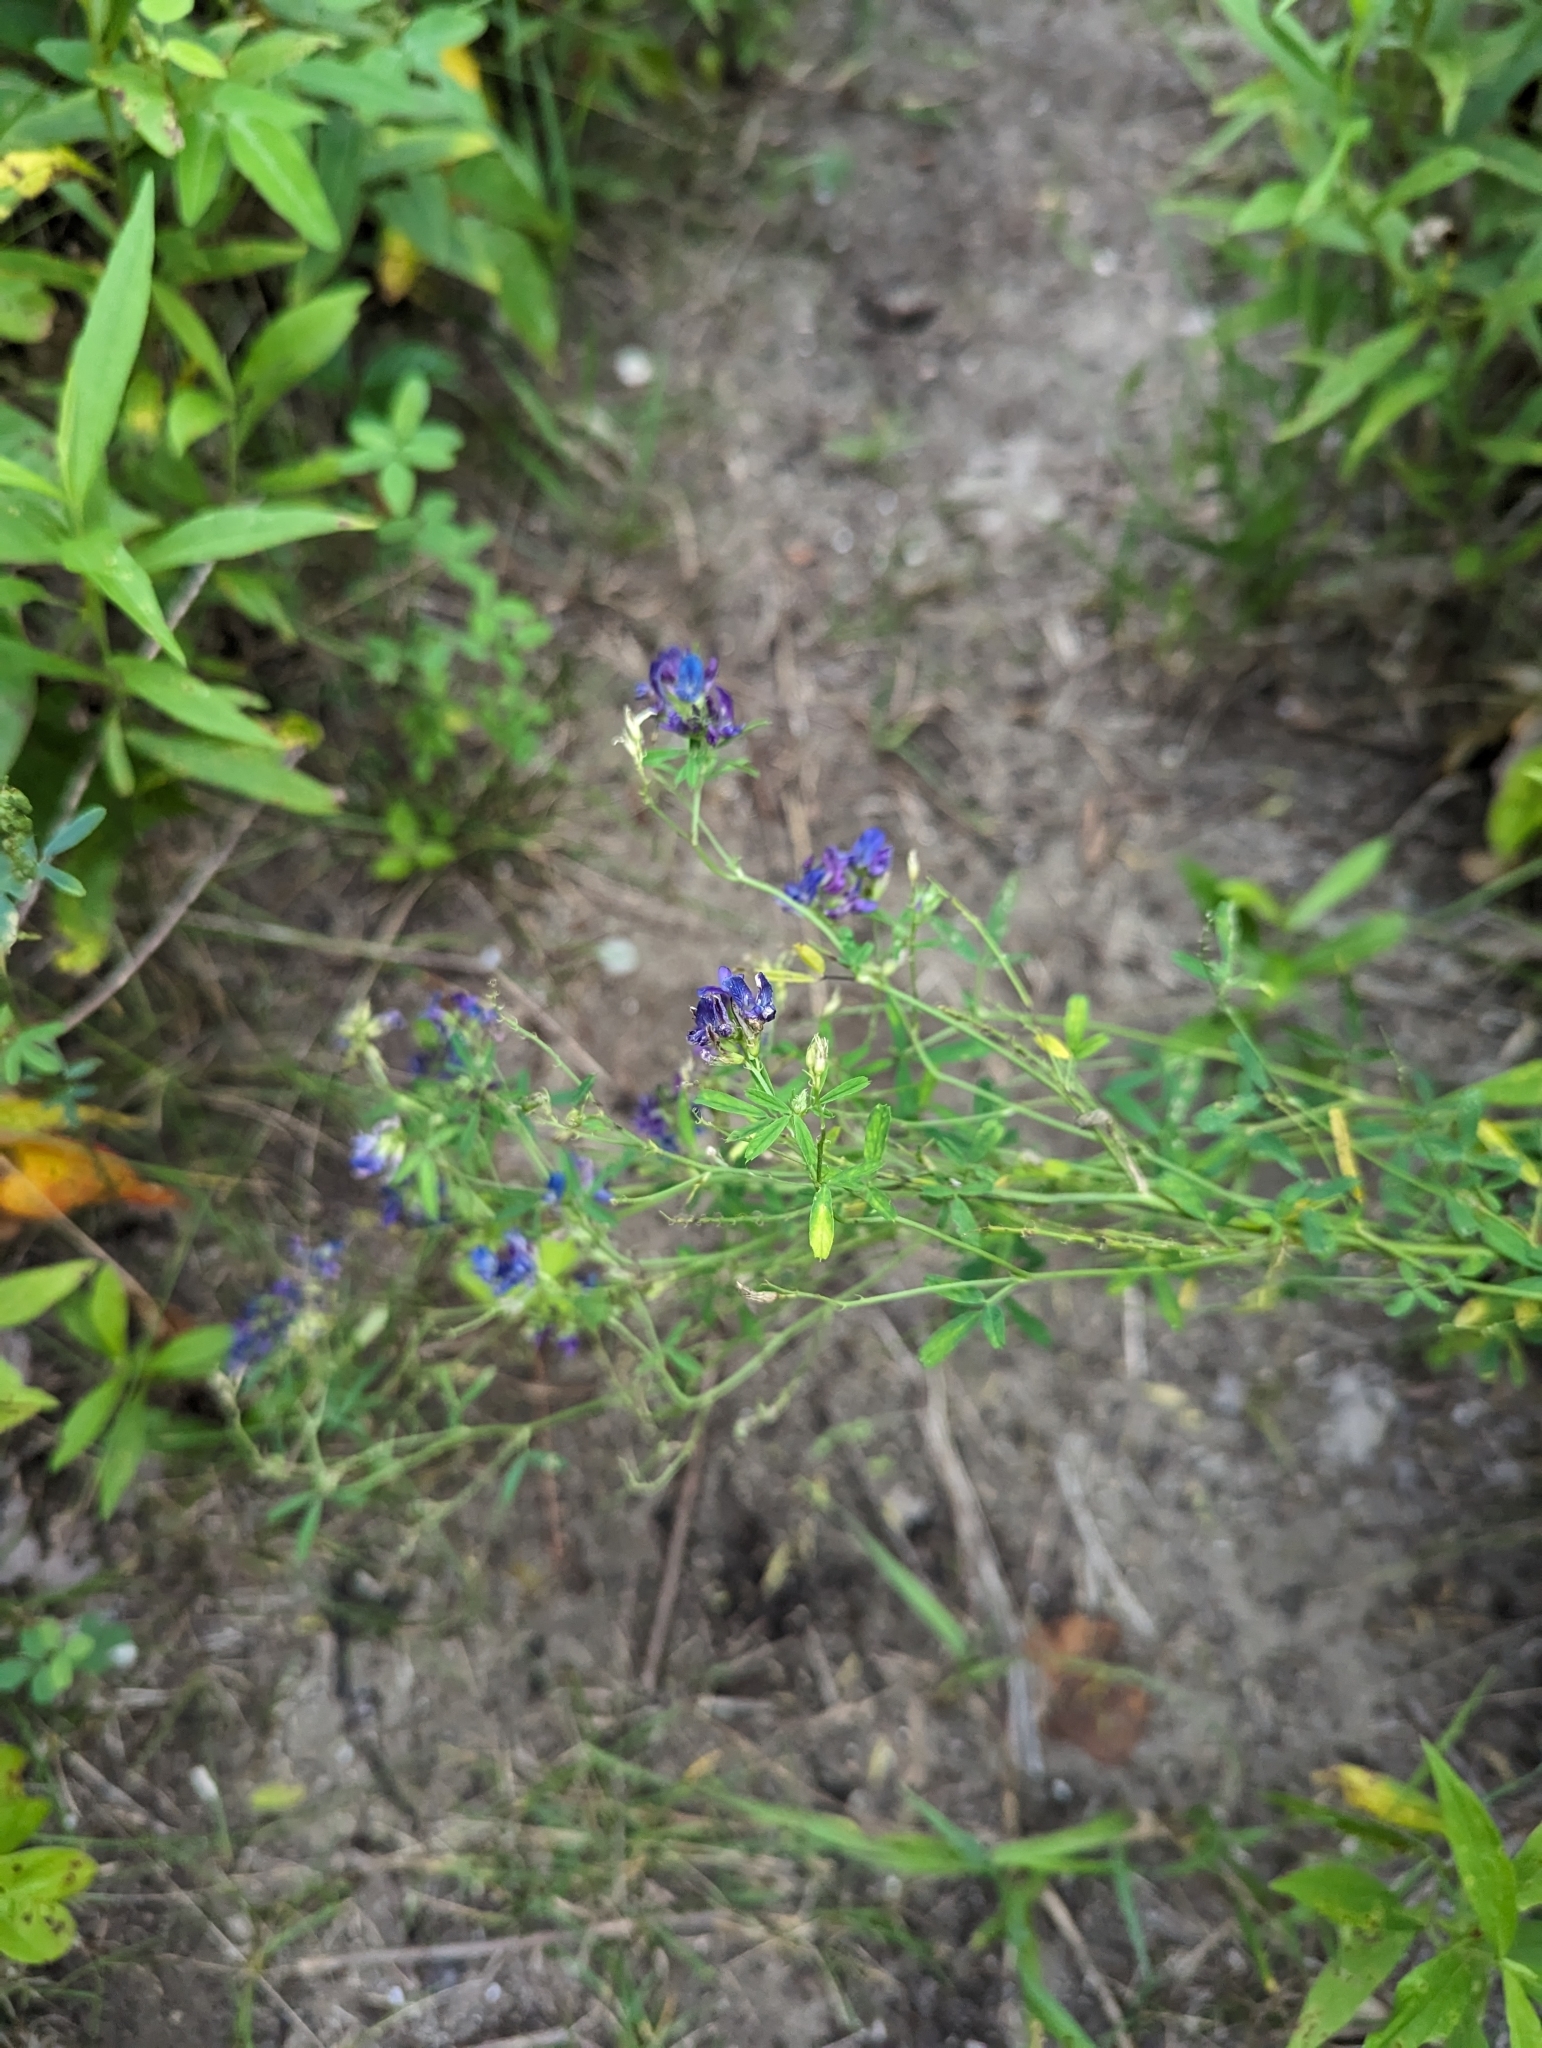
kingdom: Plantae
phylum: Tracheophyta
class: Magnoliopsida
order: Fabales
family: Fabaceae
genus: Medicago
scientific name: Medicago sativa
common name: Alfalfa
